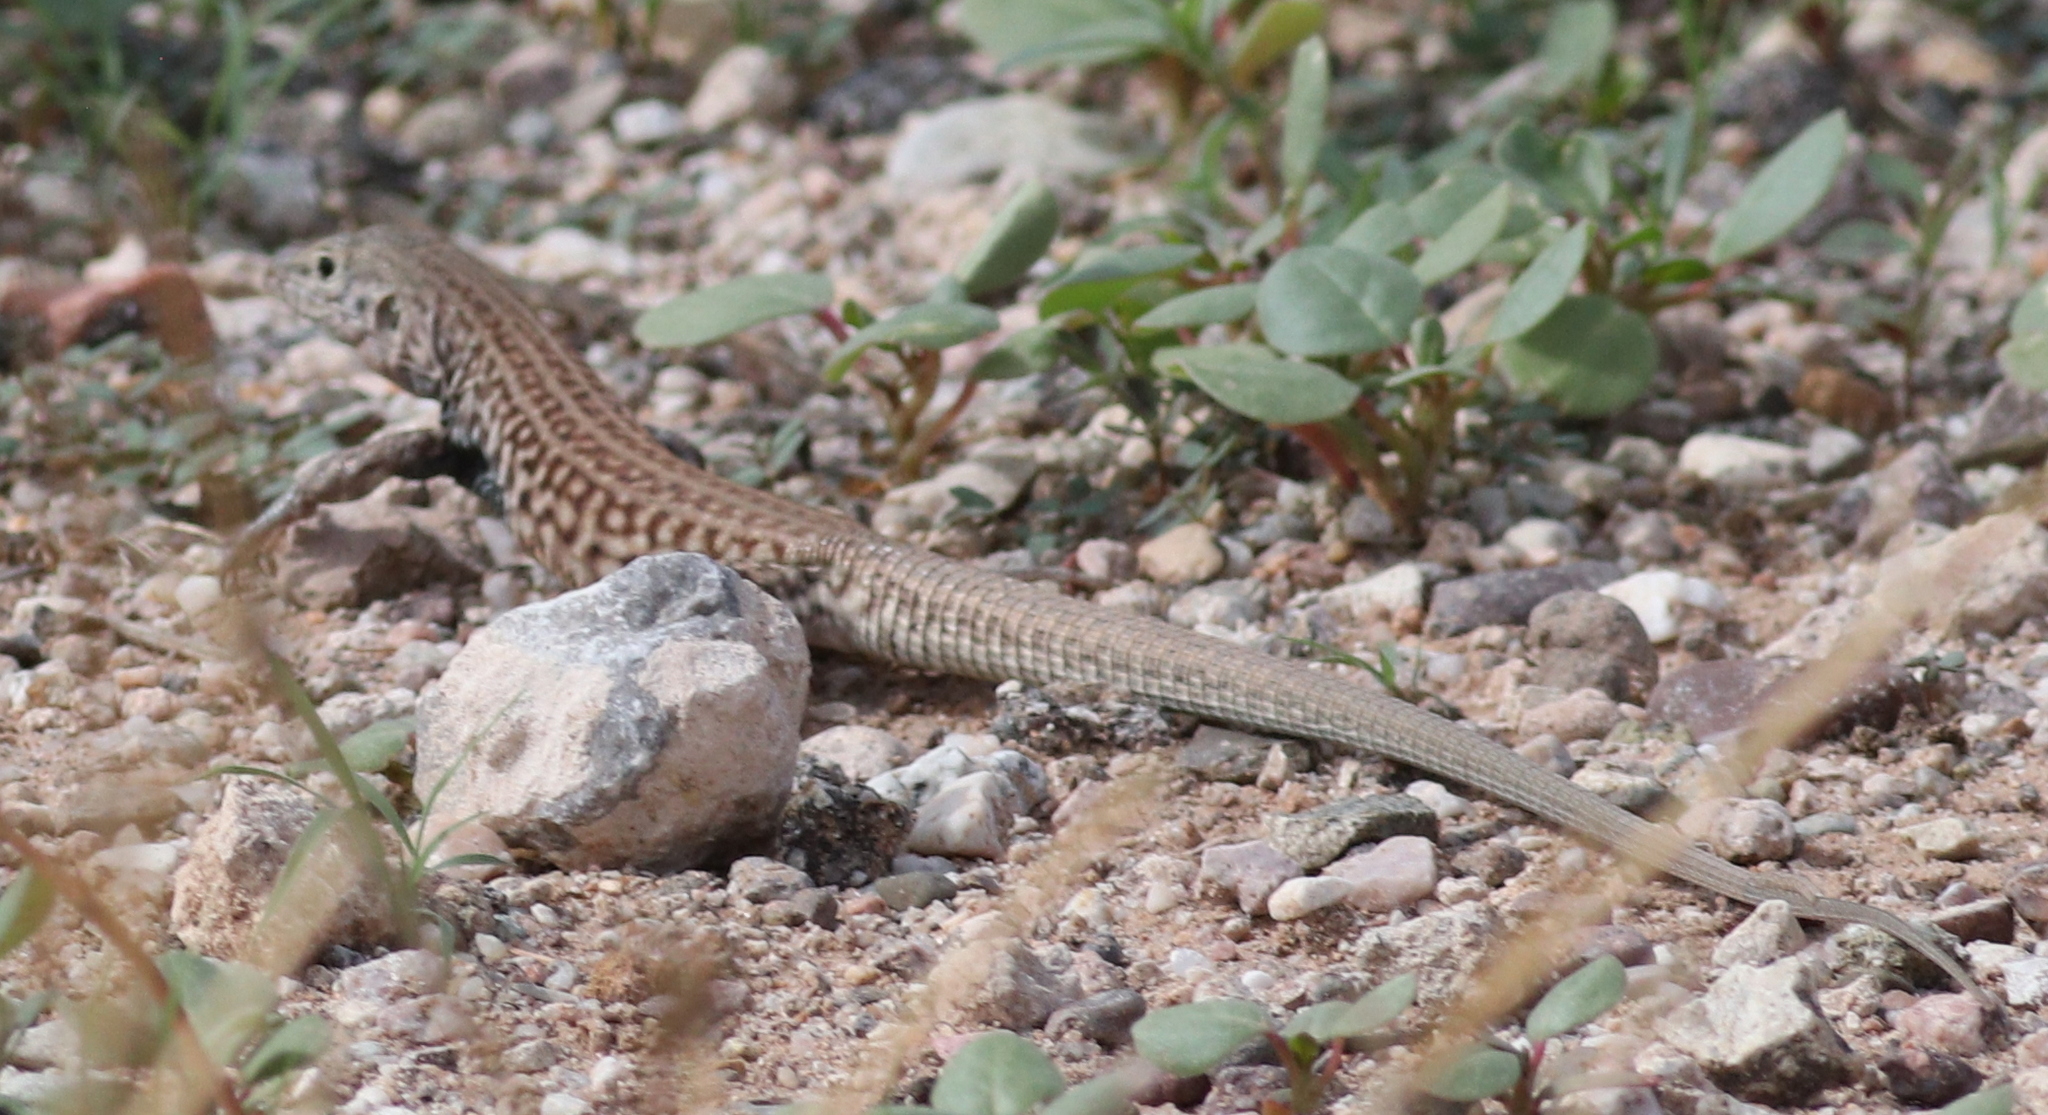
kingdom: Animalia
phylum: Chordata
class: Squamata
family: Teiidae
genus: Aspidoscelis
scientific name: Aspidoscelis tigris
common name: Tiger whiptail
